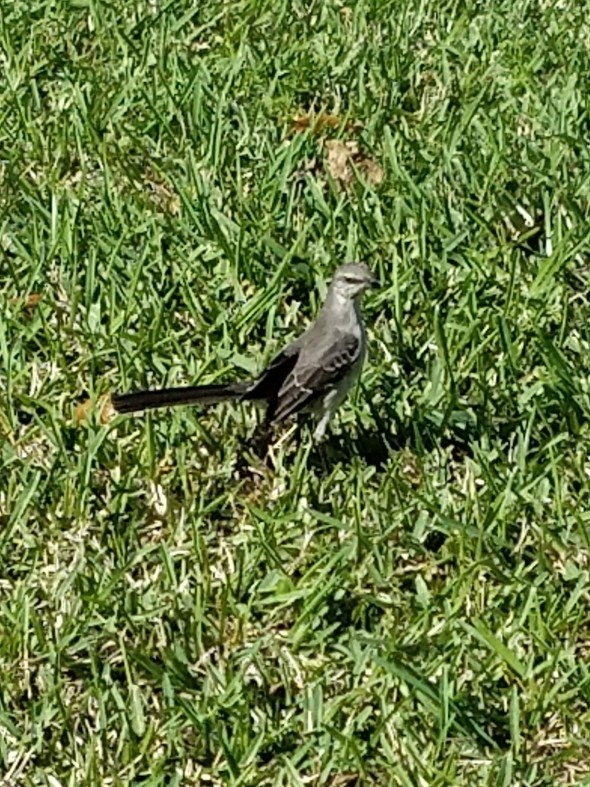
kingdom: Animalia
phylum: Chordata
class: Aves
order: Passeriformes
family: Mimidae
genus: Mimus
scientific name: Mimus polyglottos
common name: Northern mockingbird
